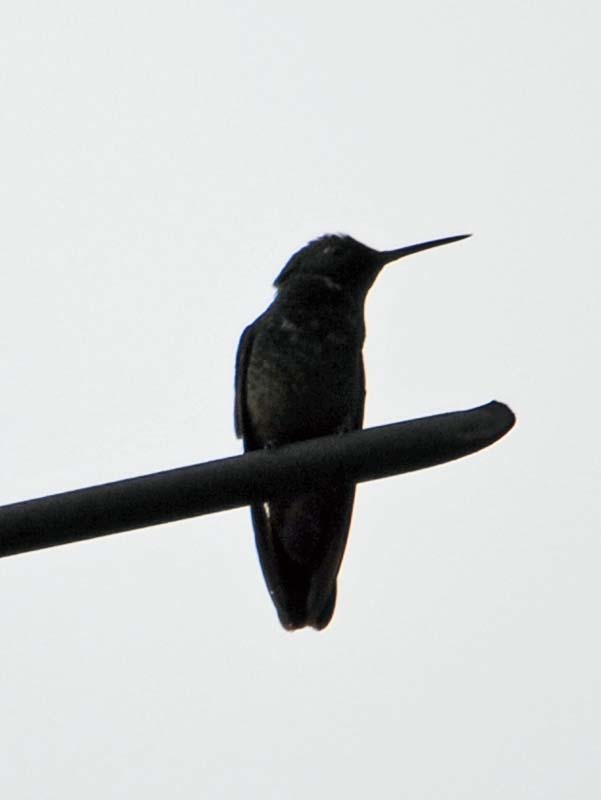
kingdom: Animalia
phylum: Chordata
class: Aves
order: Apodiformes
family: Trochilidae
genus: Eugenes
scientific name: Eugenes fulgens
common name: Magnificent hummingbird
